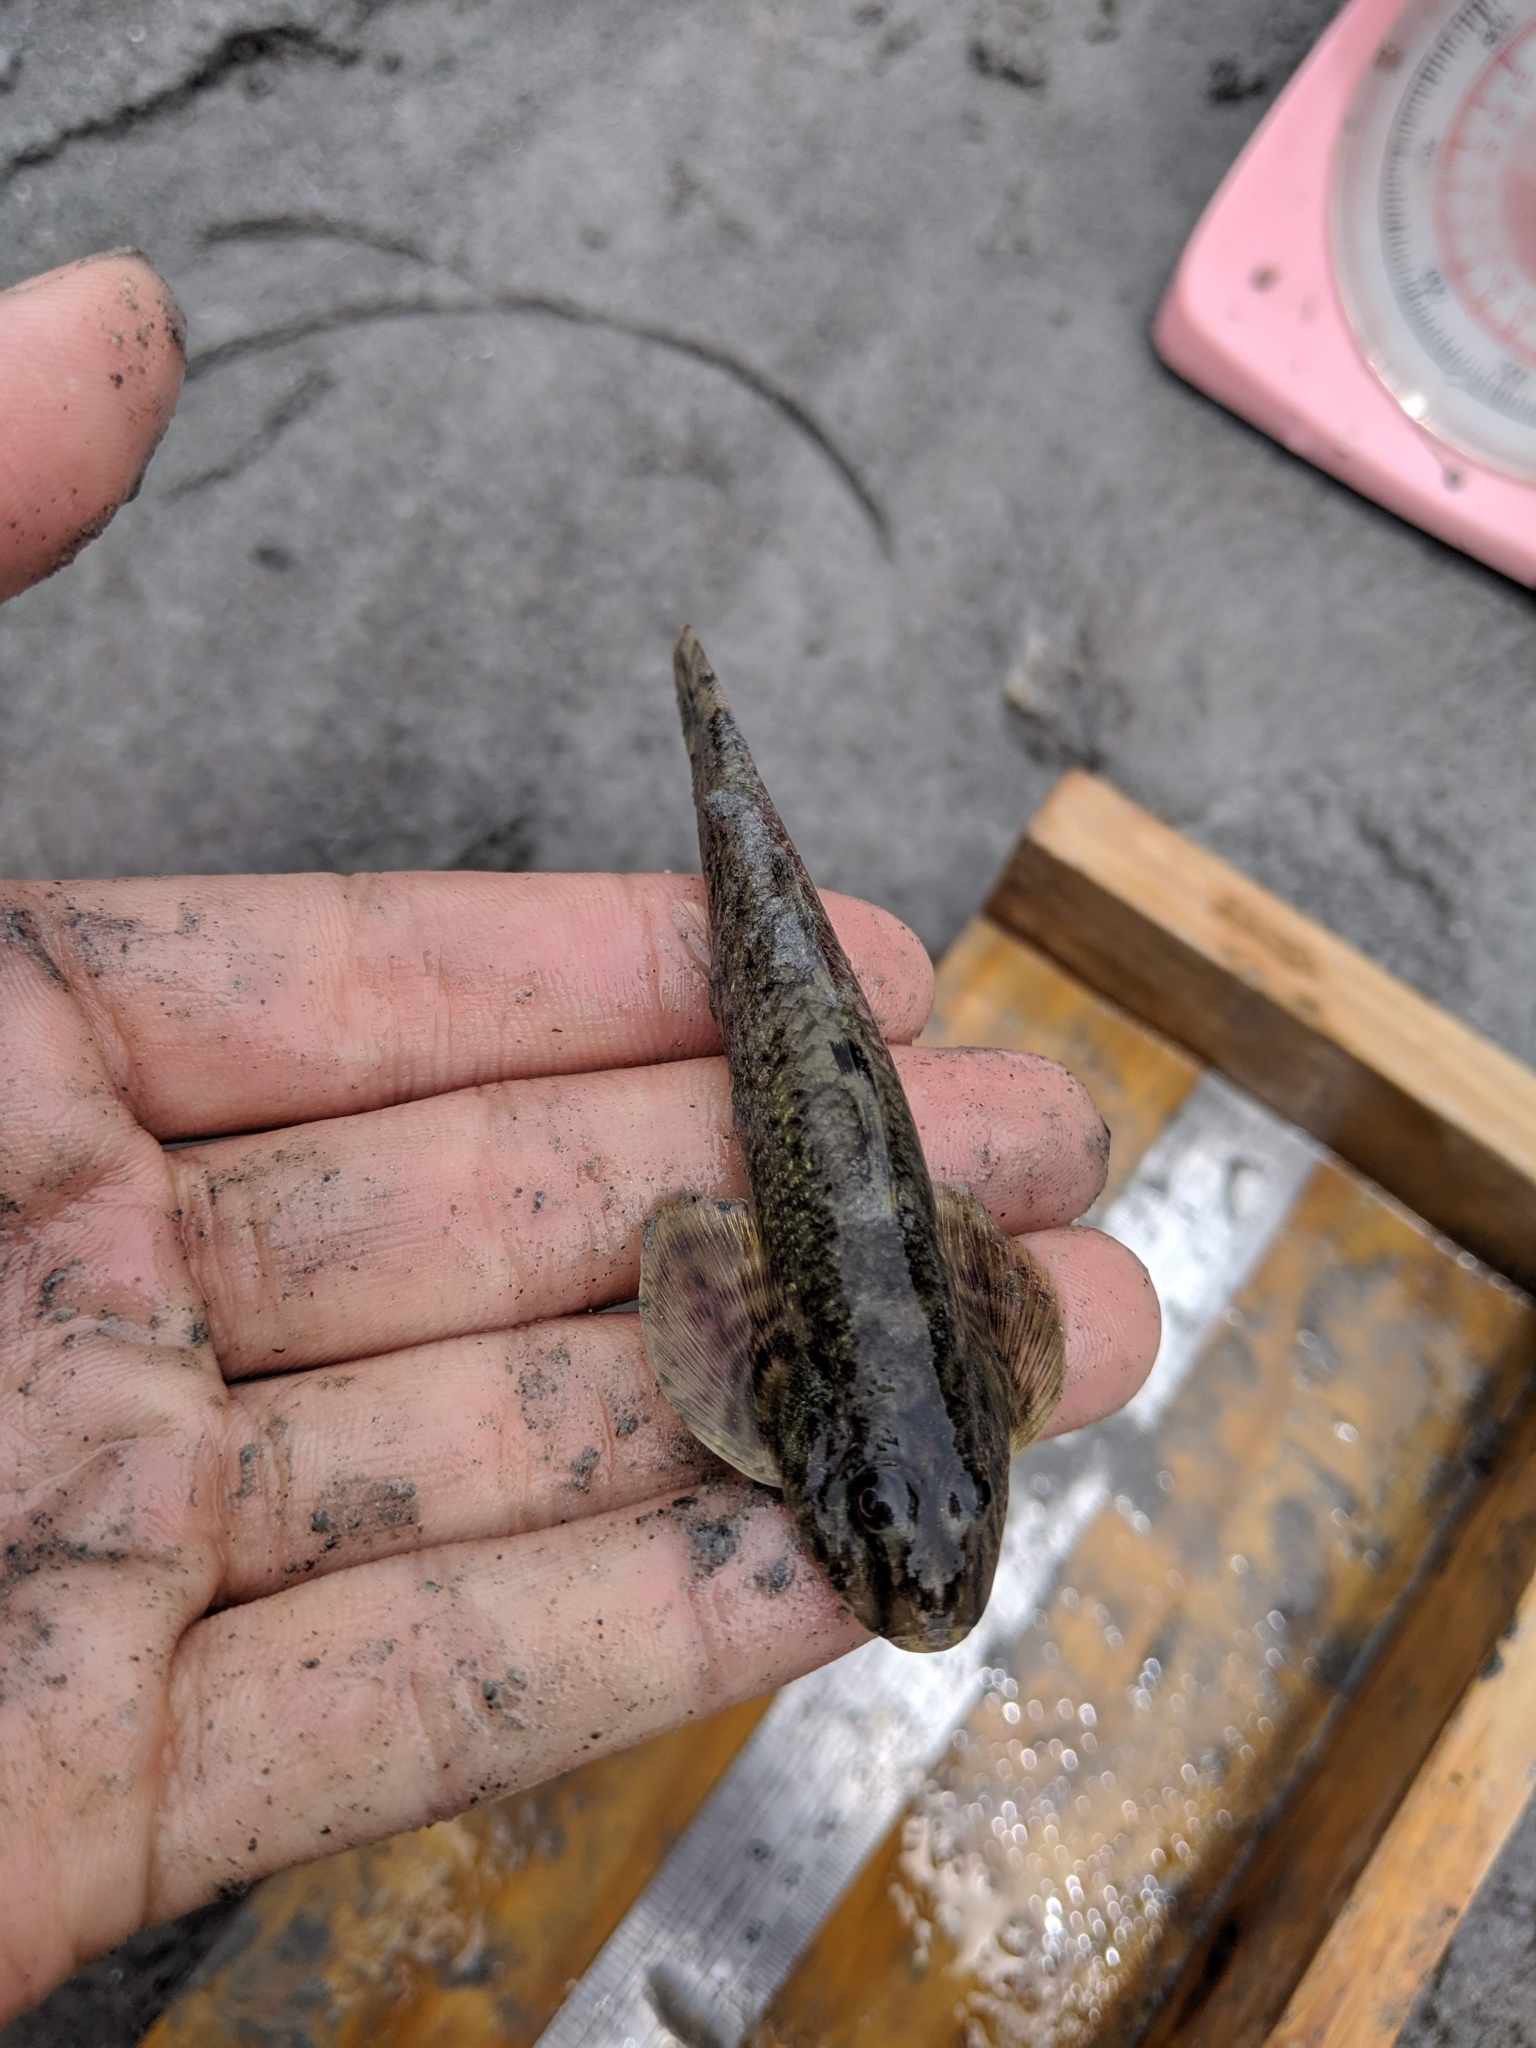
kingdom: Animalia
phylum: Chordata
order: Perciformes
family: Rhyacichthyidae
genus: Rhyacichthys
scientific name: Rhyacichthys aspro
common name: Loach goby
